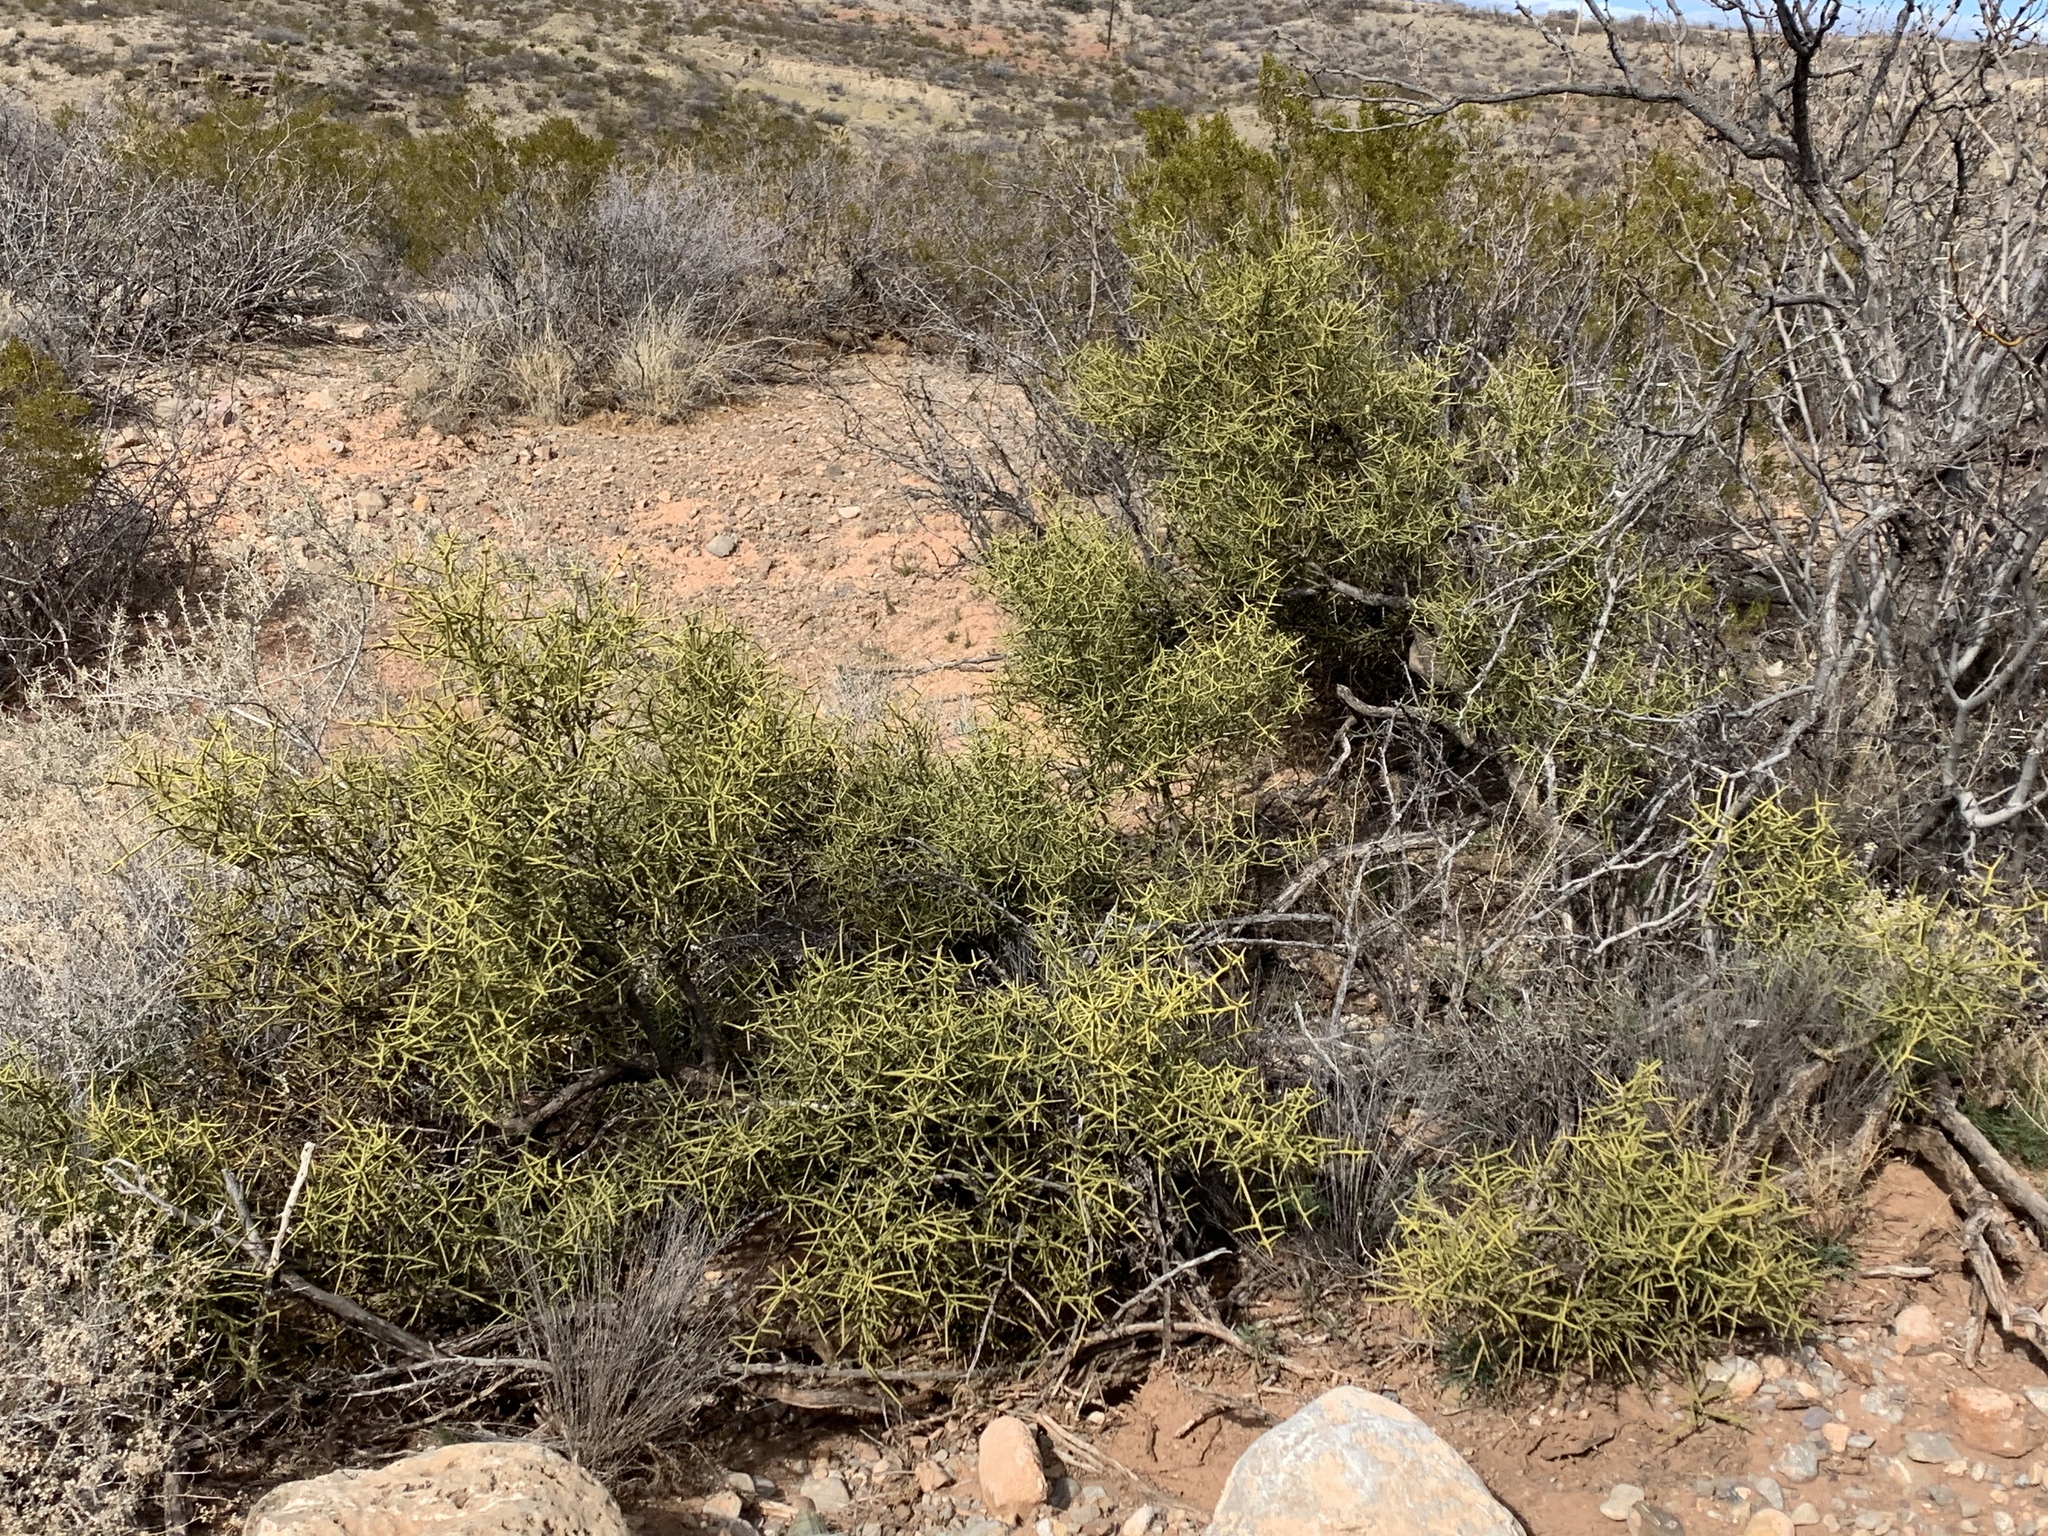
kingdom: Plantae
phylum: Tracheophyta
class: Magnoliopsida
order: Brassicales
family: Koeberliniaceae
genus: Koeberlinia
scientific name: Koeberlinia spinosa
